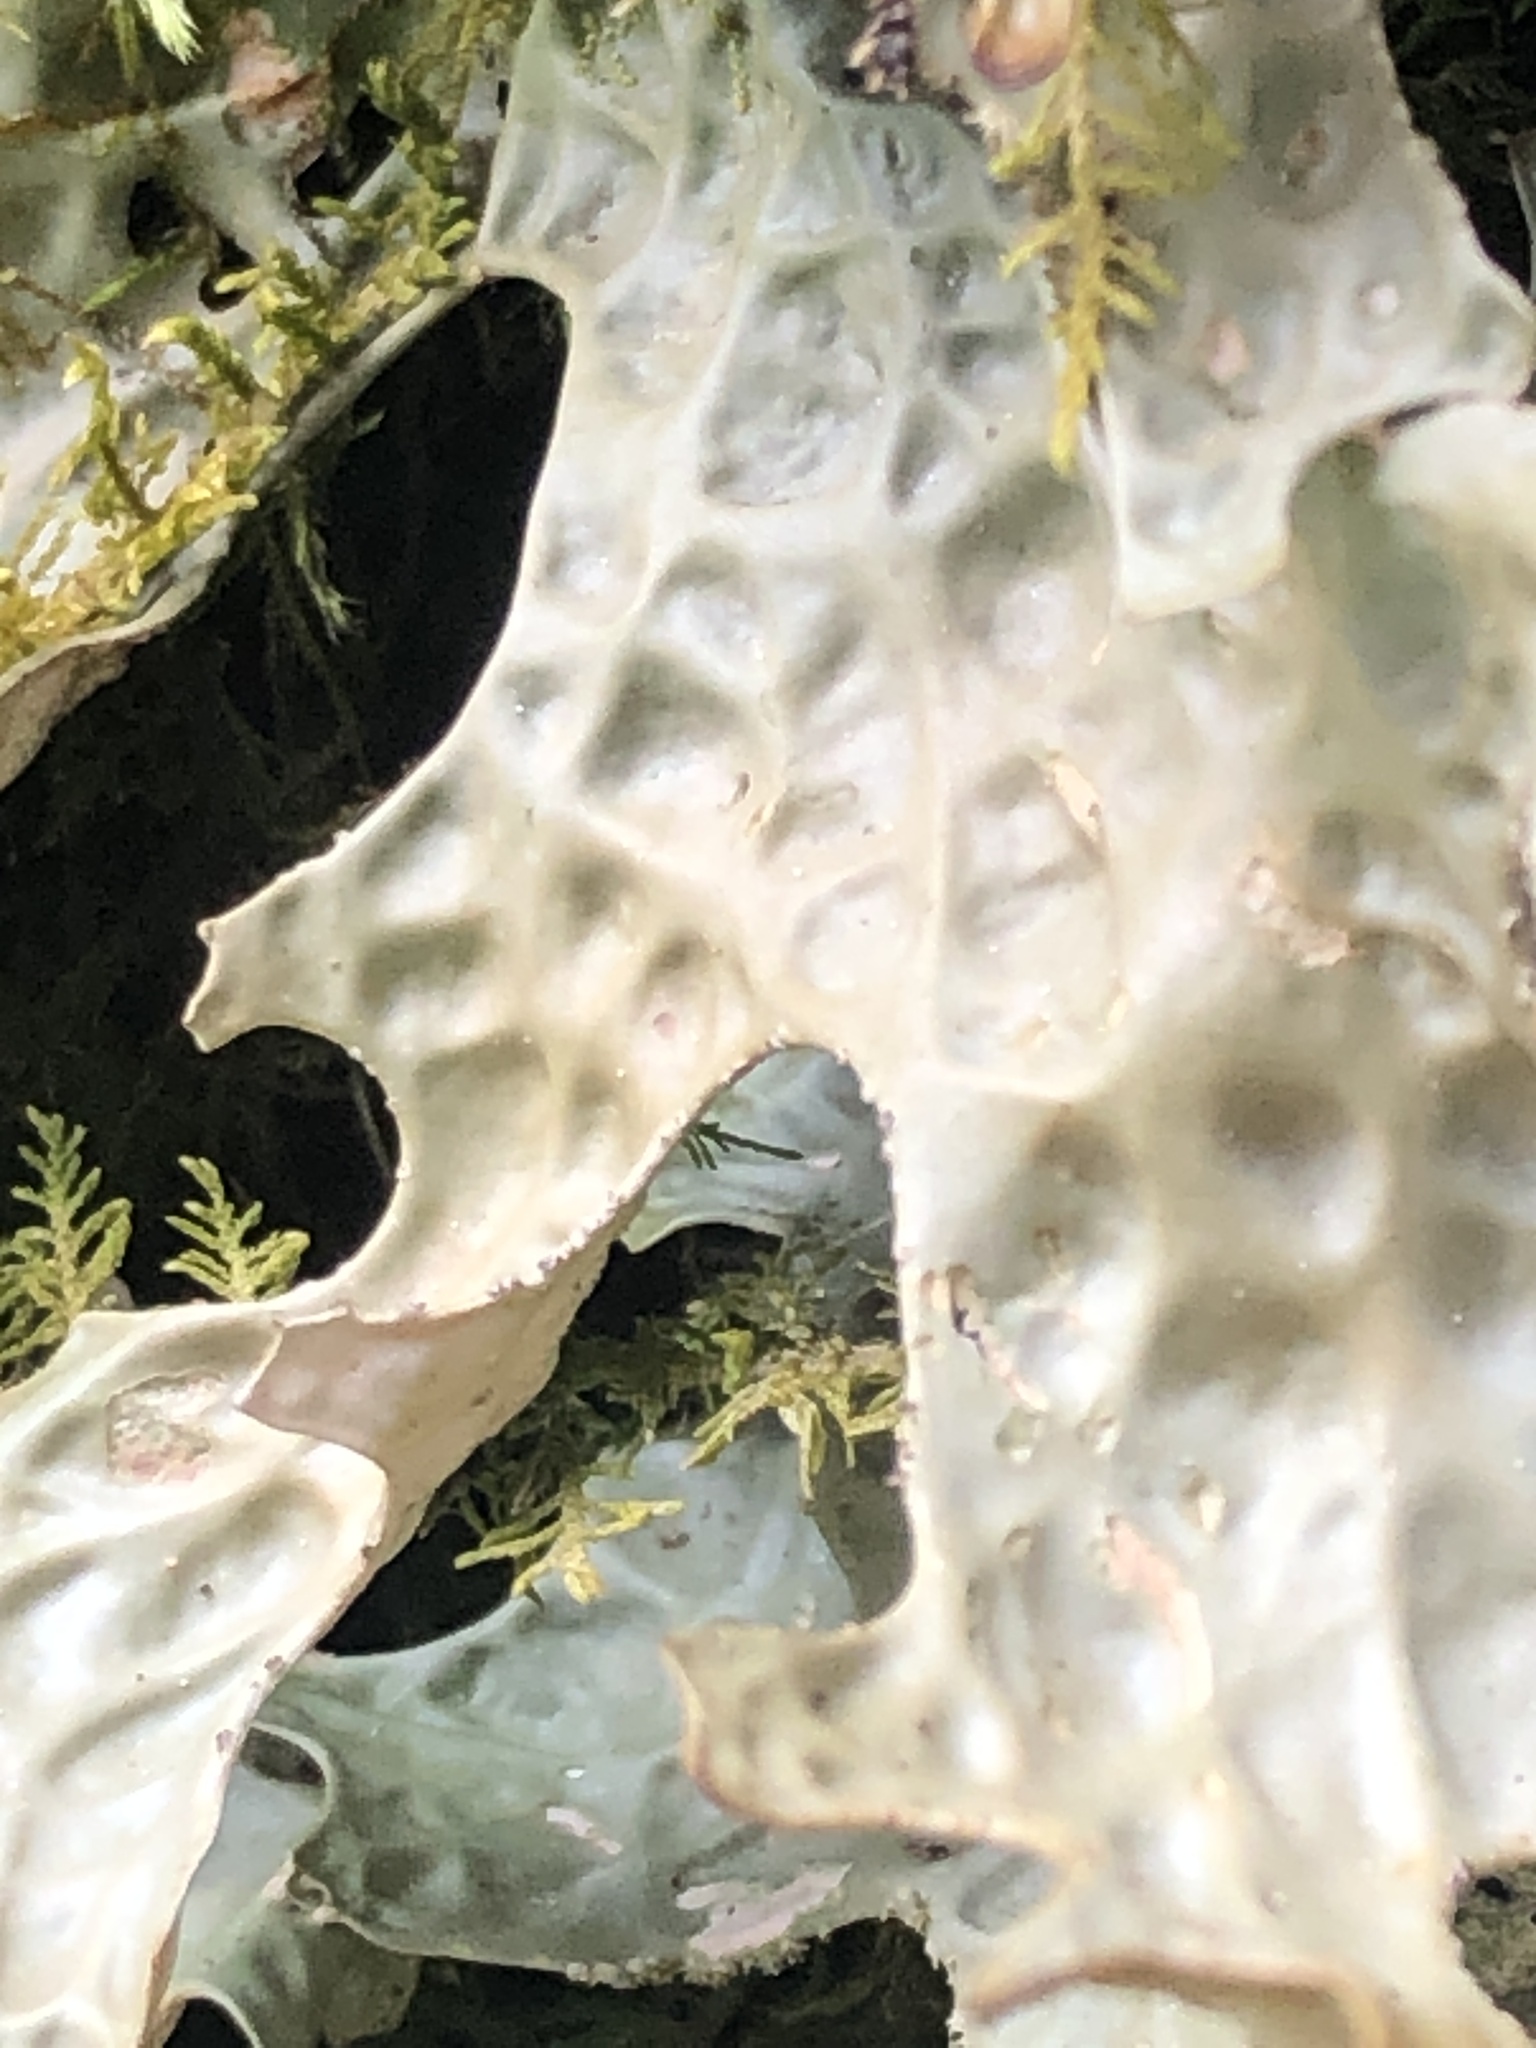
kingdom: Fungi
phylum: Ascomycota
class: Lecanoromycetes
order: Peltigerales
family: Lobariaceae
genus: Lobaria
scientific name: Lobaria pulmonaria
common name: Lungwort
